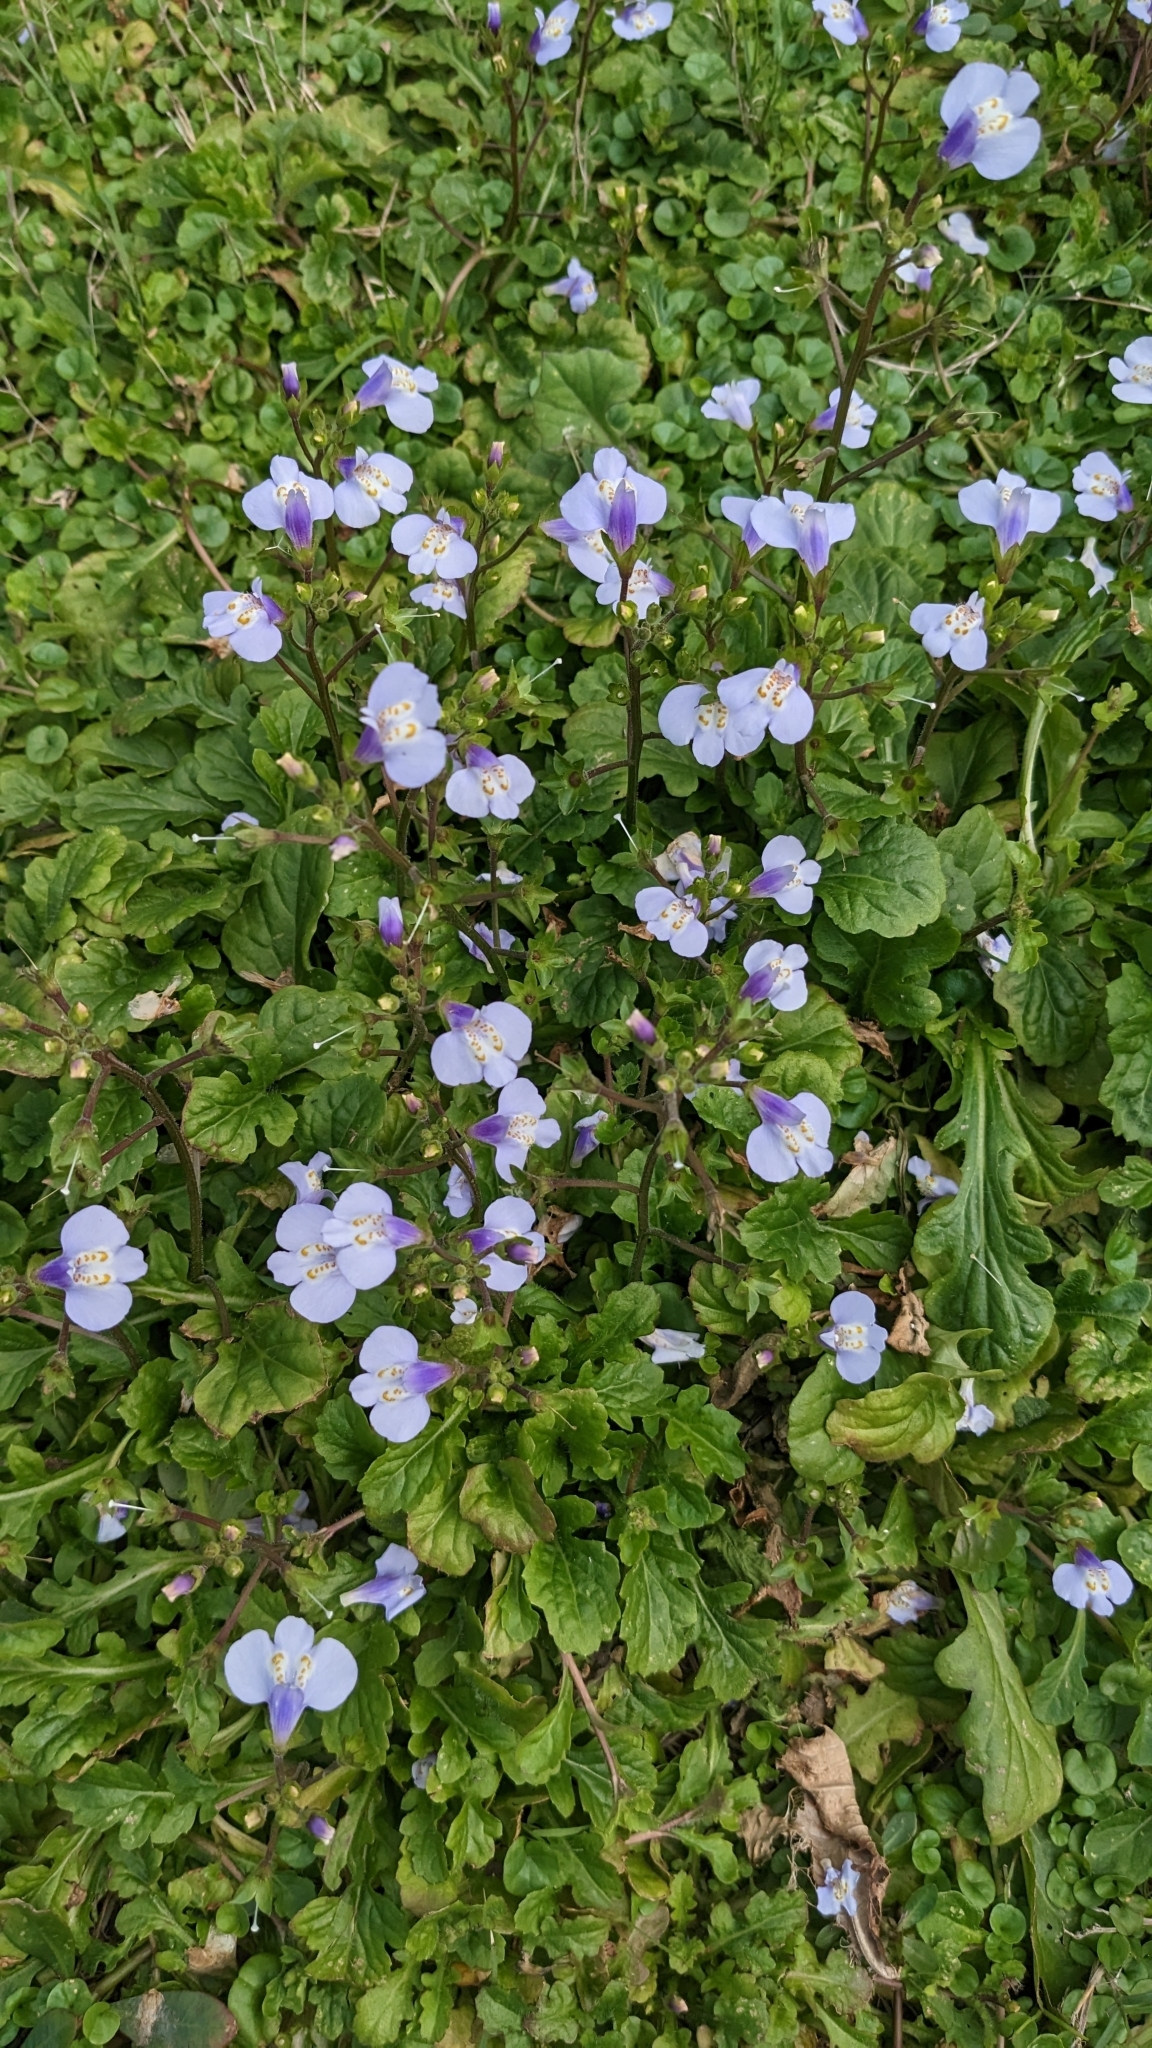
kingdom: Plantae
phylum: Tracheophyta
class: Magnoliopsida
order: Lamiales
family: Mazaceae
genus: Mazus
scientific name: Mazus fauriei
